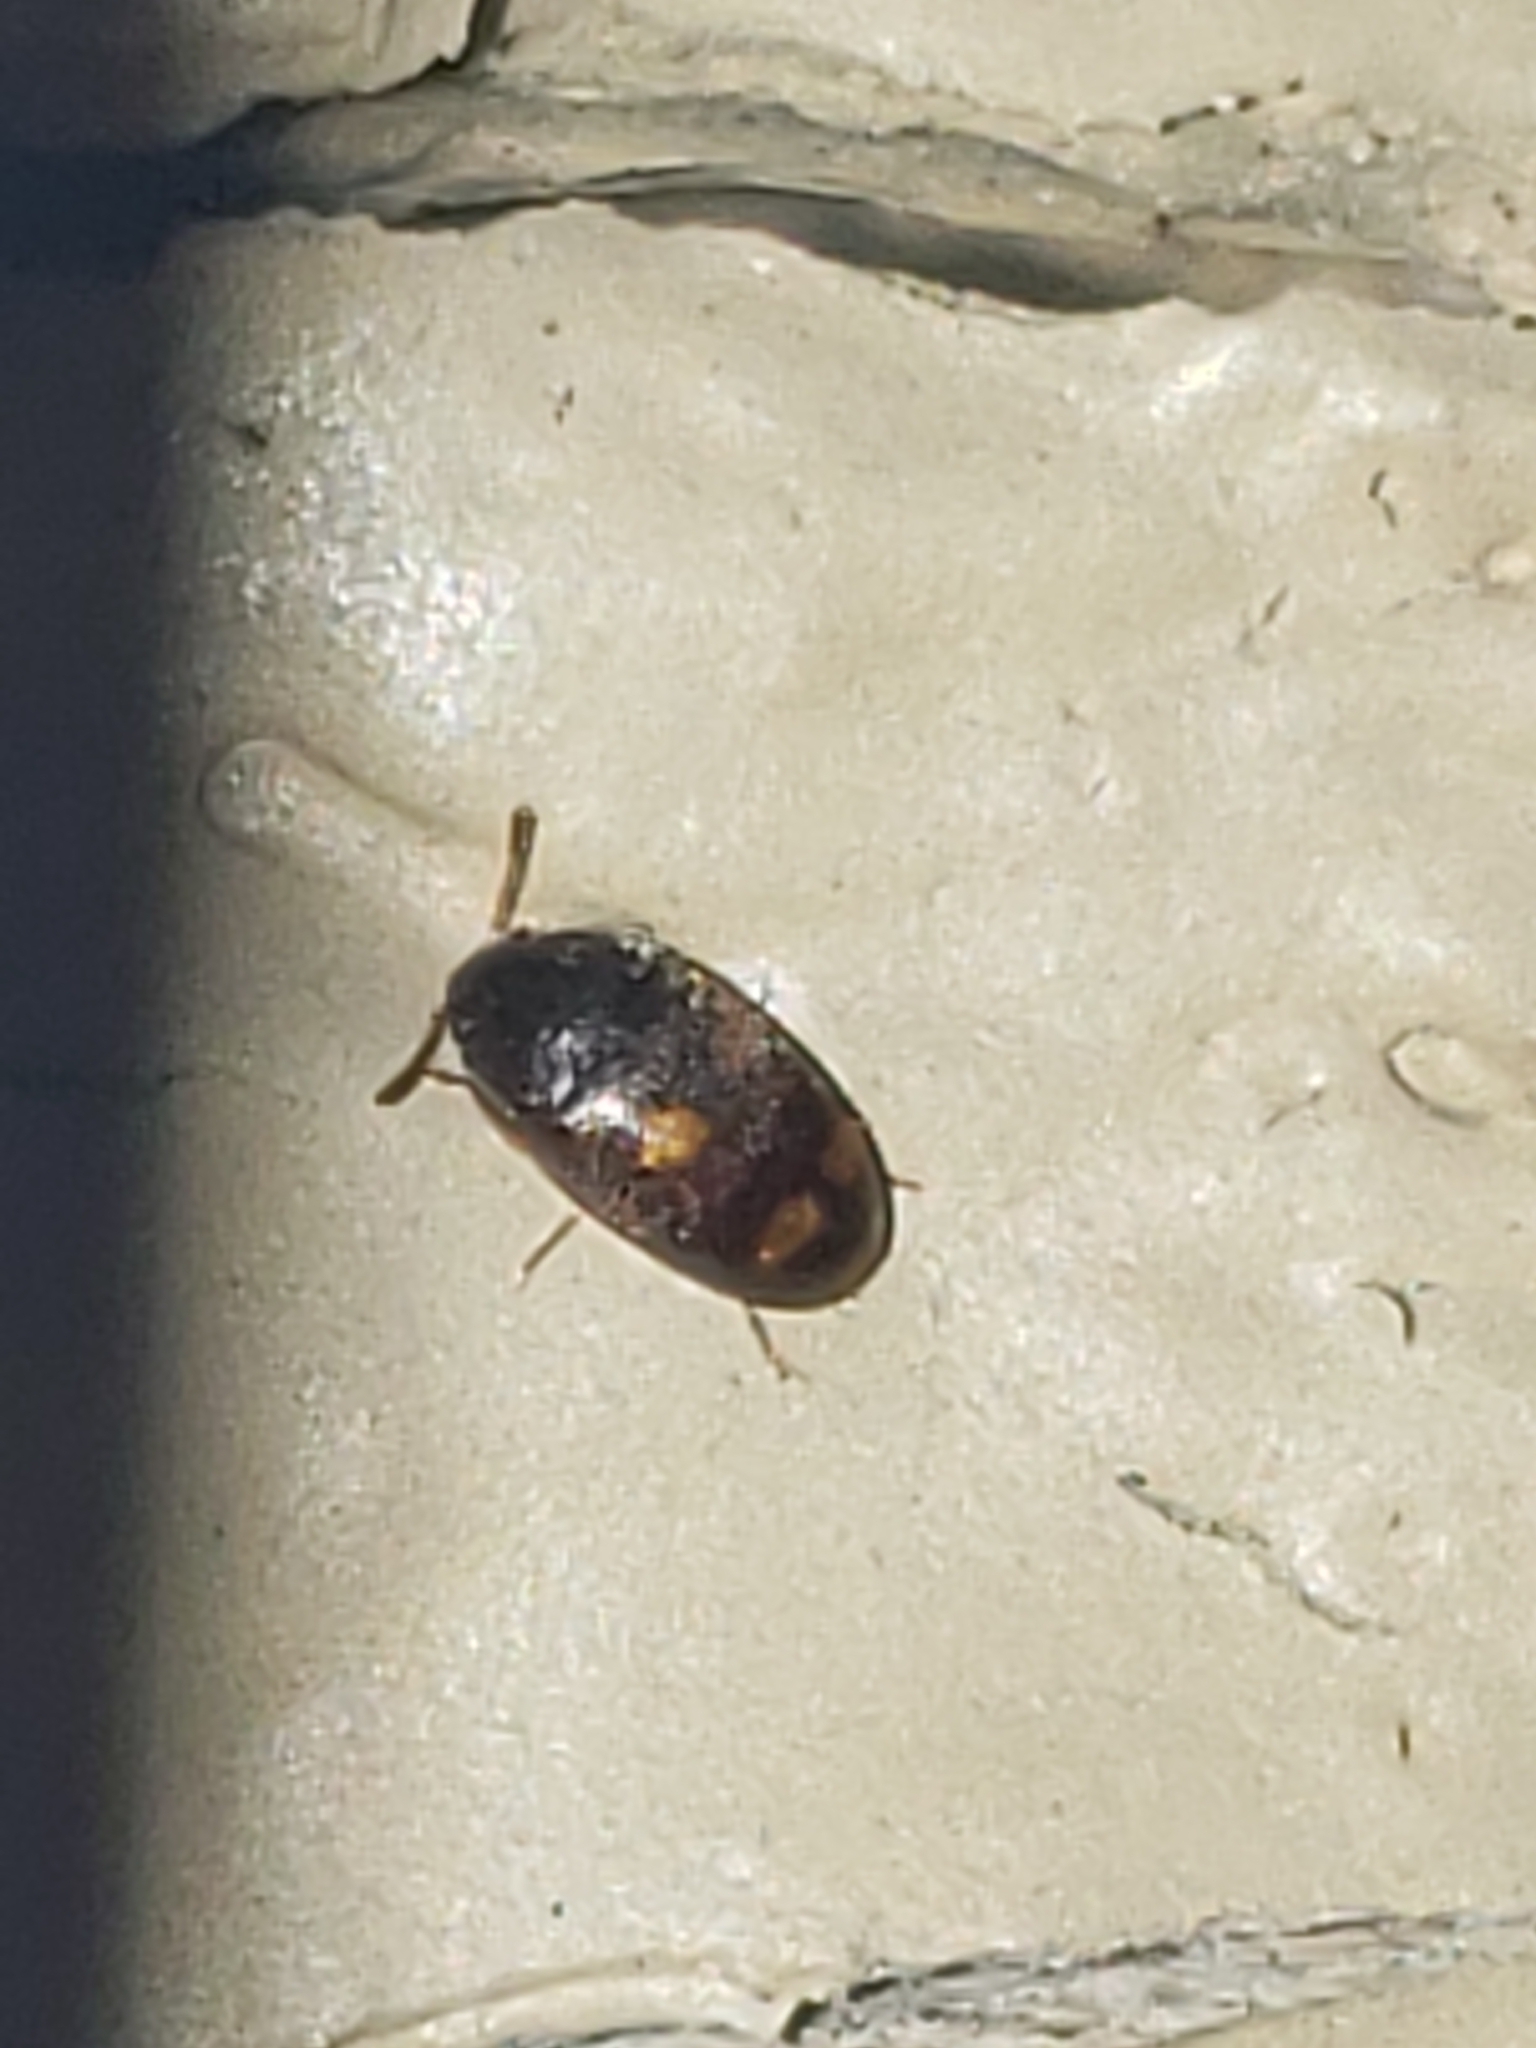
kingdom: Animalia
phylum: Arthropoda
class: Insecta
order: Coleoptera
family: Mycetophagidae
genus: Litargus
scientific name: Litargus tetraspilotus
